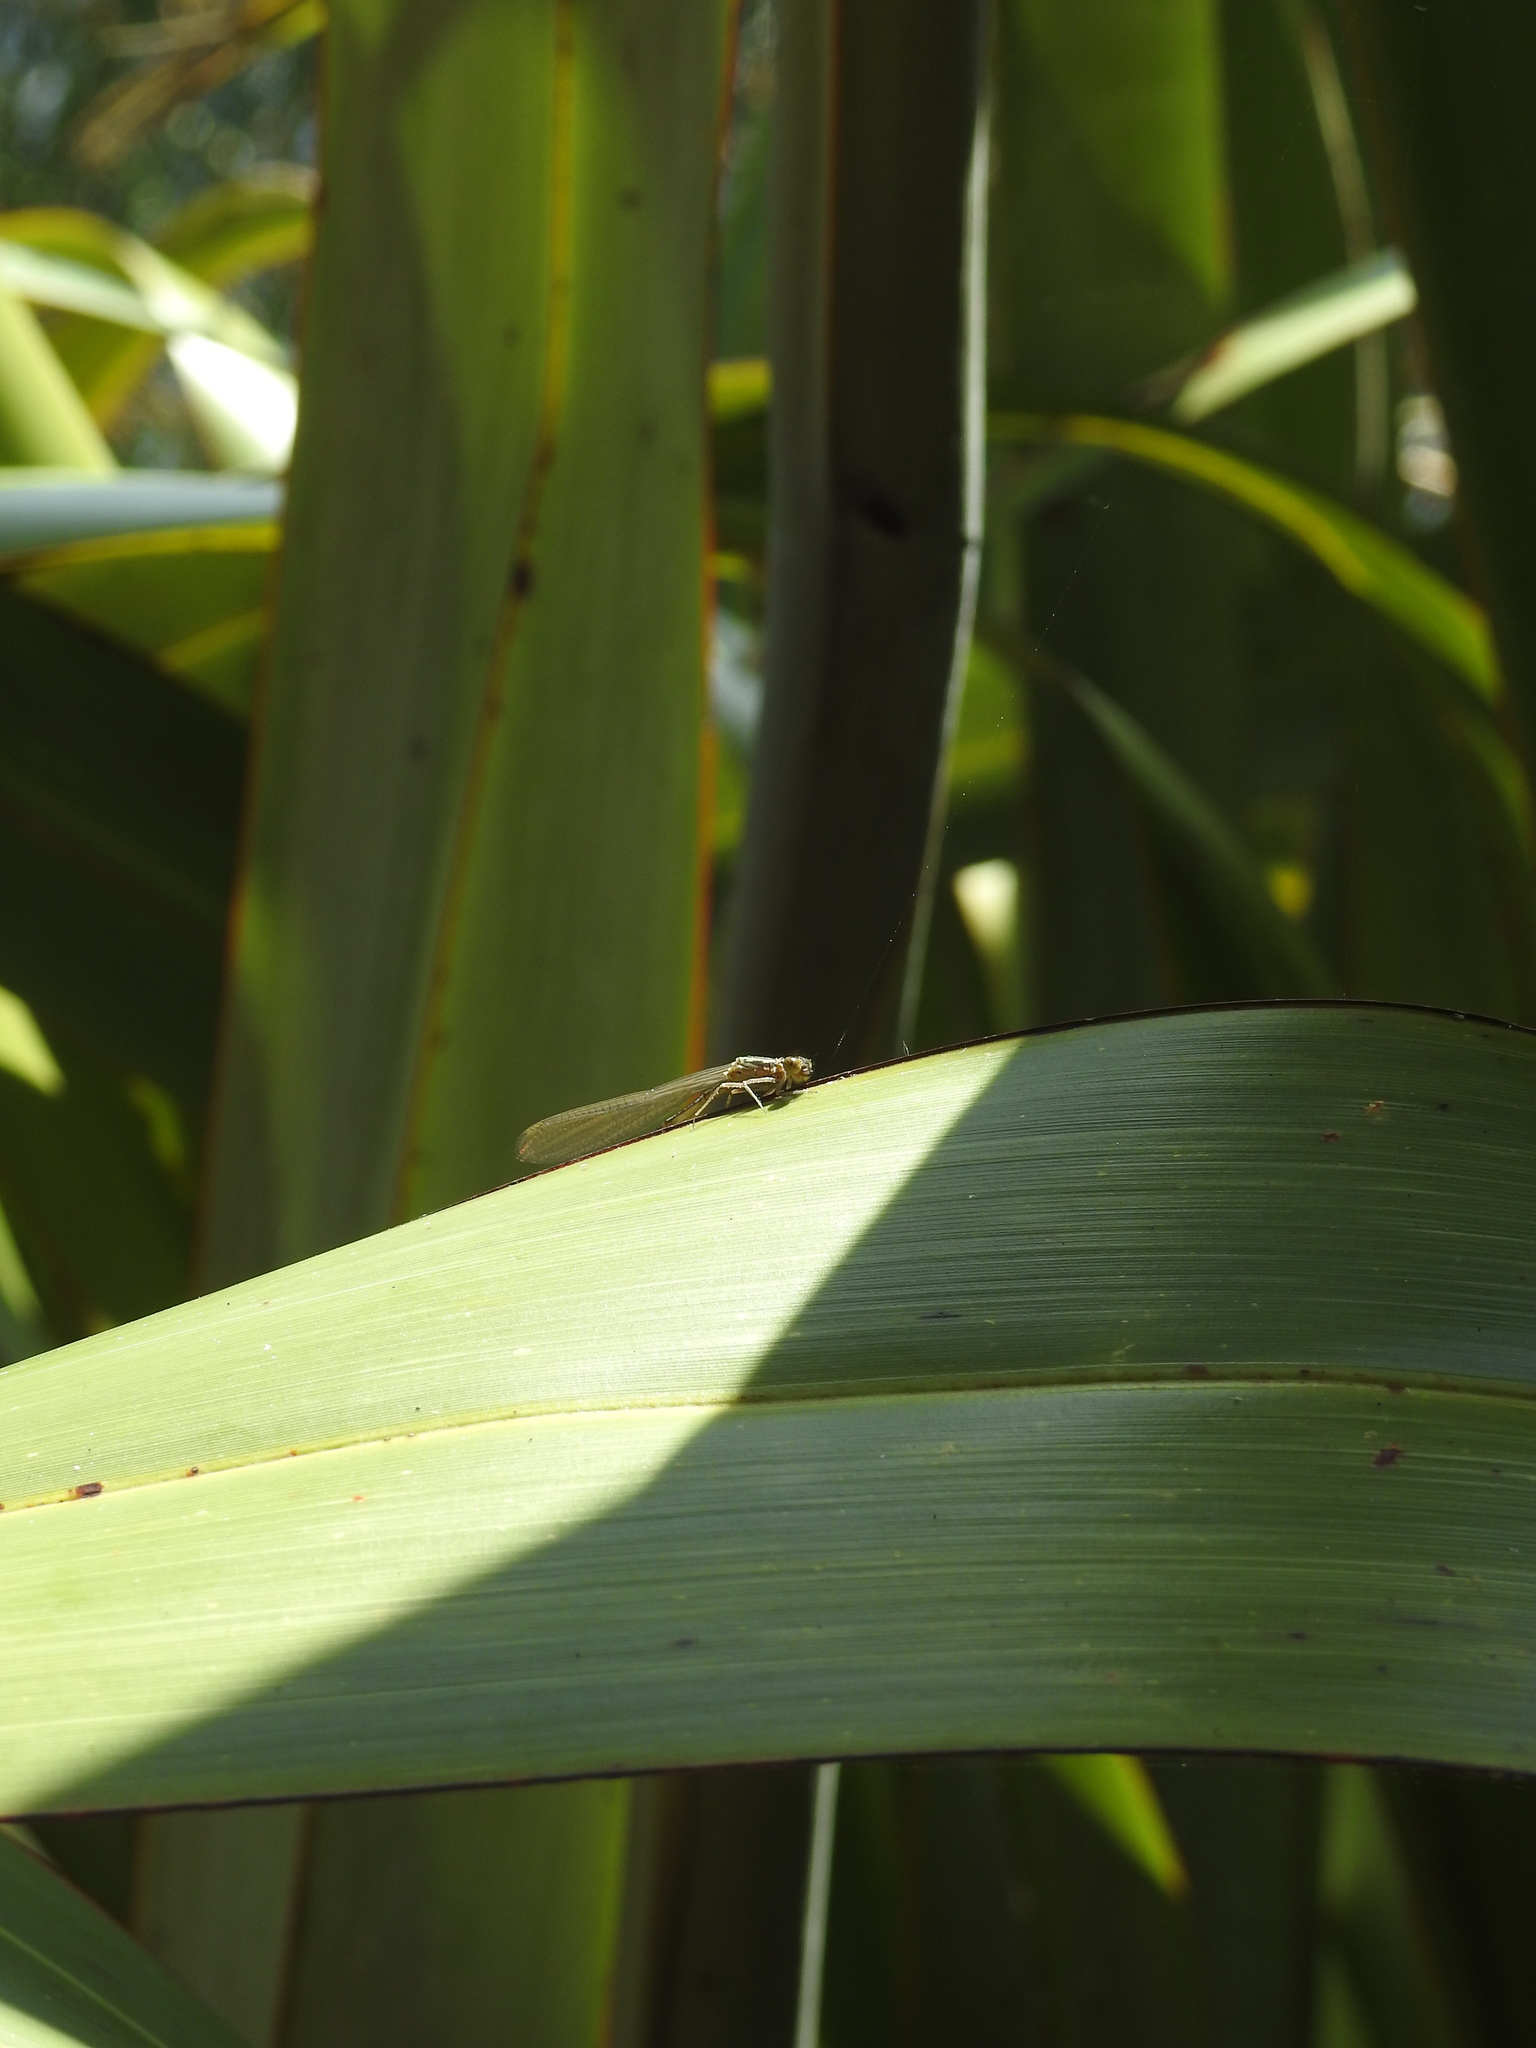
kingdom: Animalia
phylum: Arthropoda
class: Insecta
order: Odonata
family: Coenagrionidae
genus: Xanthocnemis
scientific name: Xanthocnemis zealandica
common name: Common redcoat damselfly
